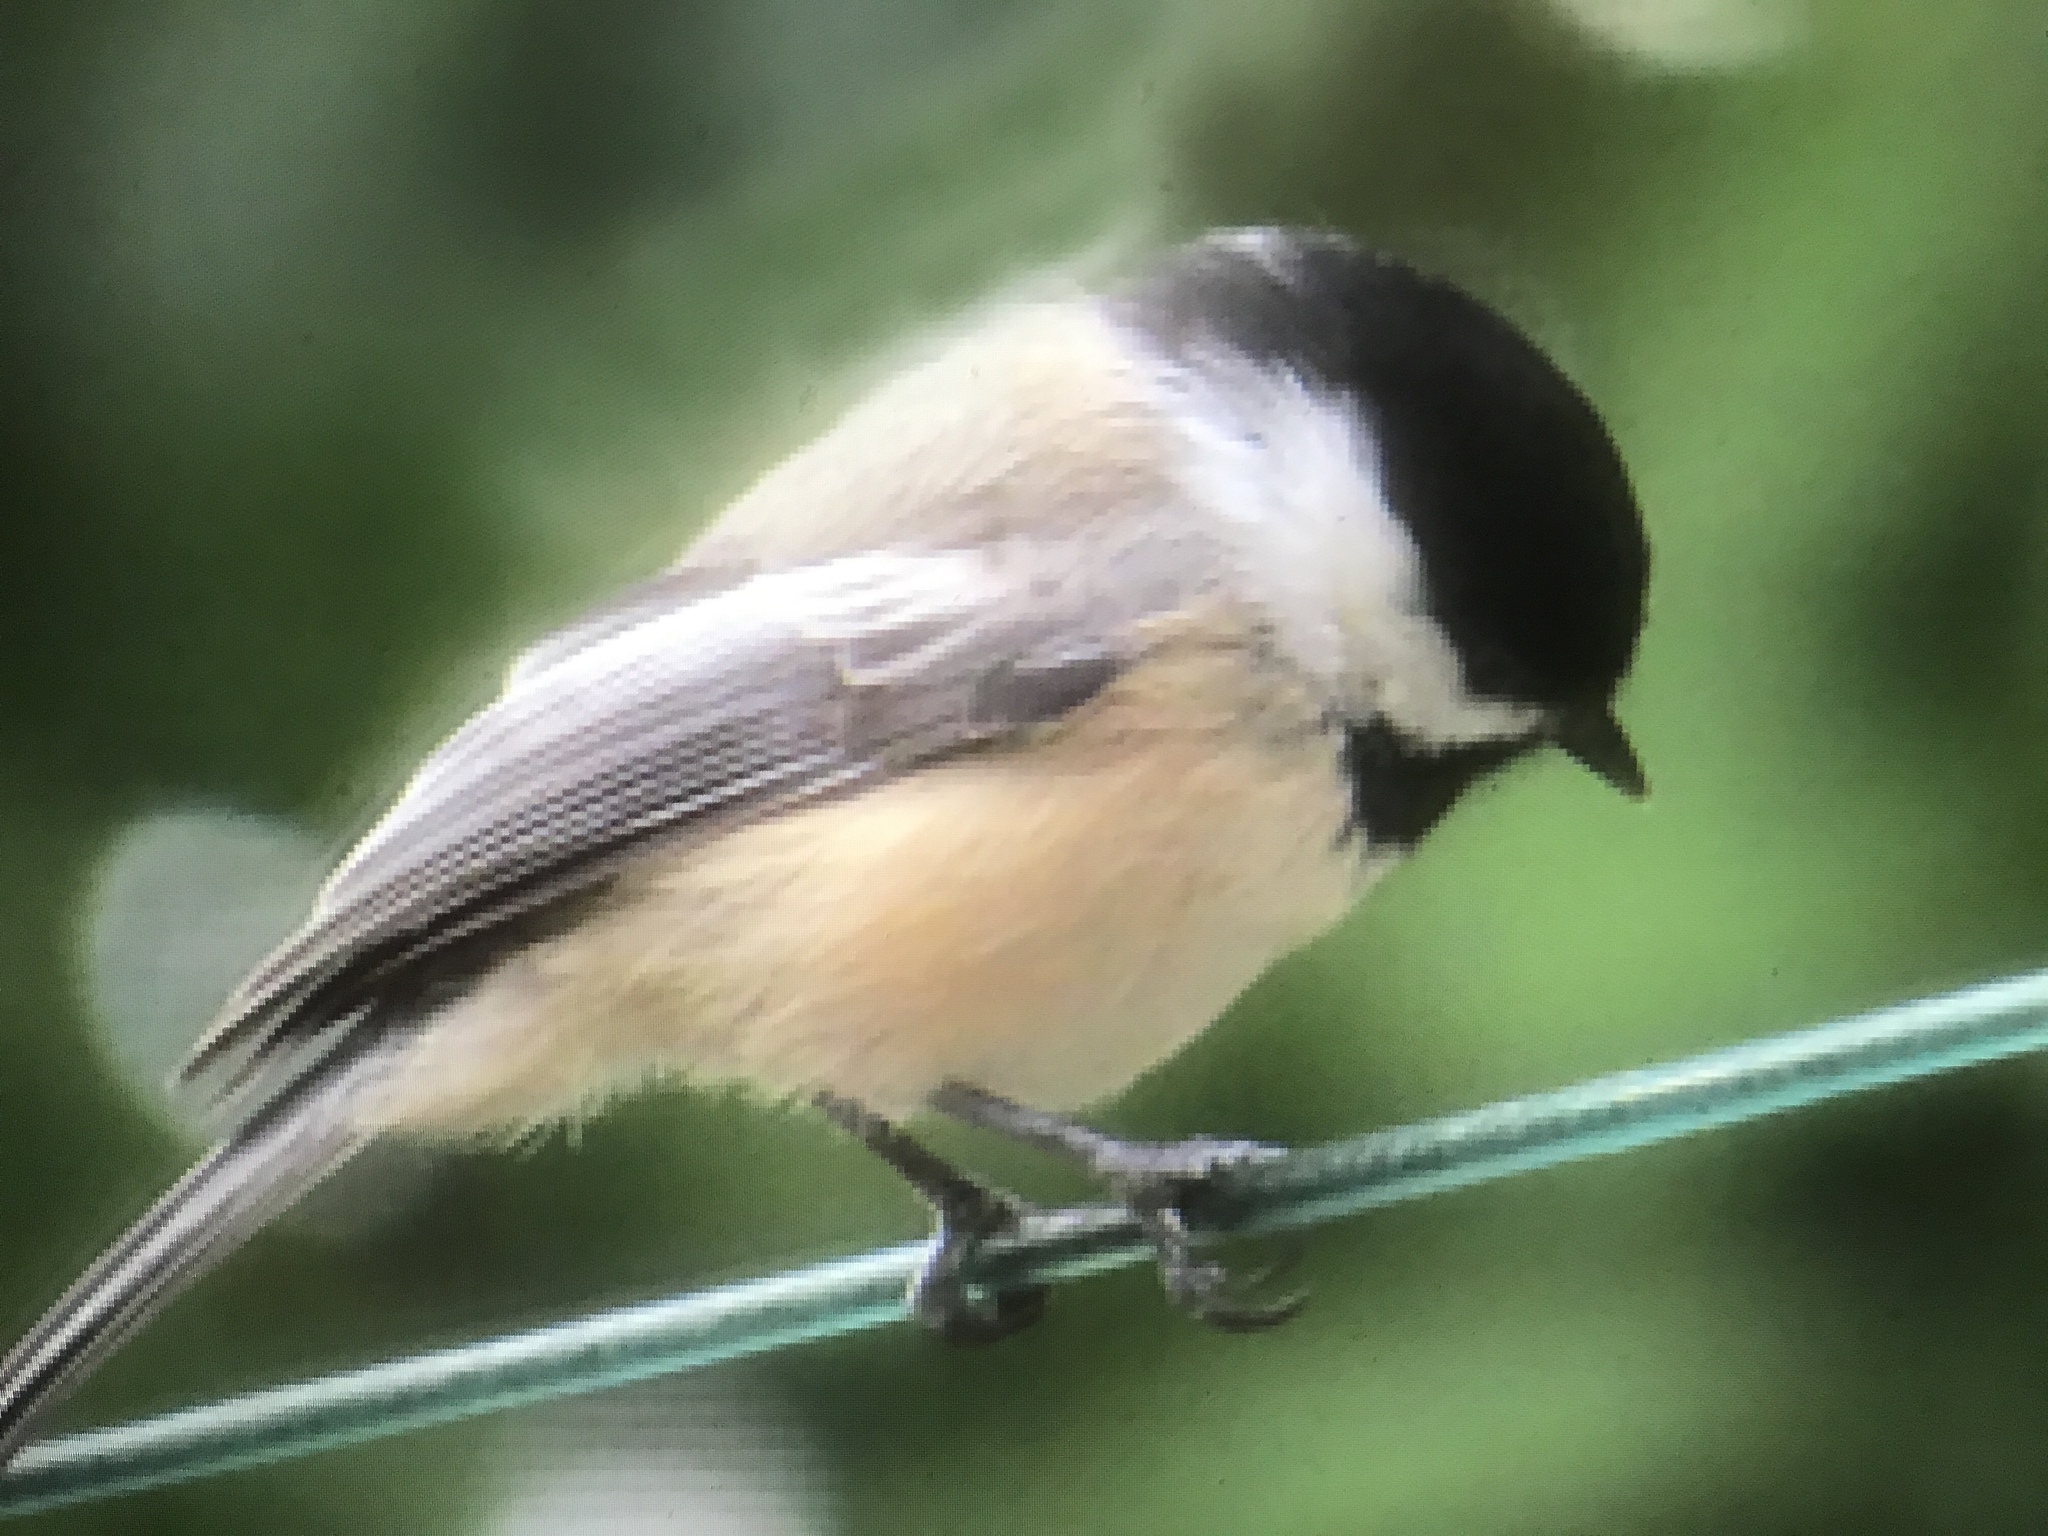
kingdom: Animalia
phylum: Chordata
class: Aves
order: Passeriformes
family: Paridae
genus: Poecile
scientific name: Poecile atricapillus
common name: Black-capped chickadee
